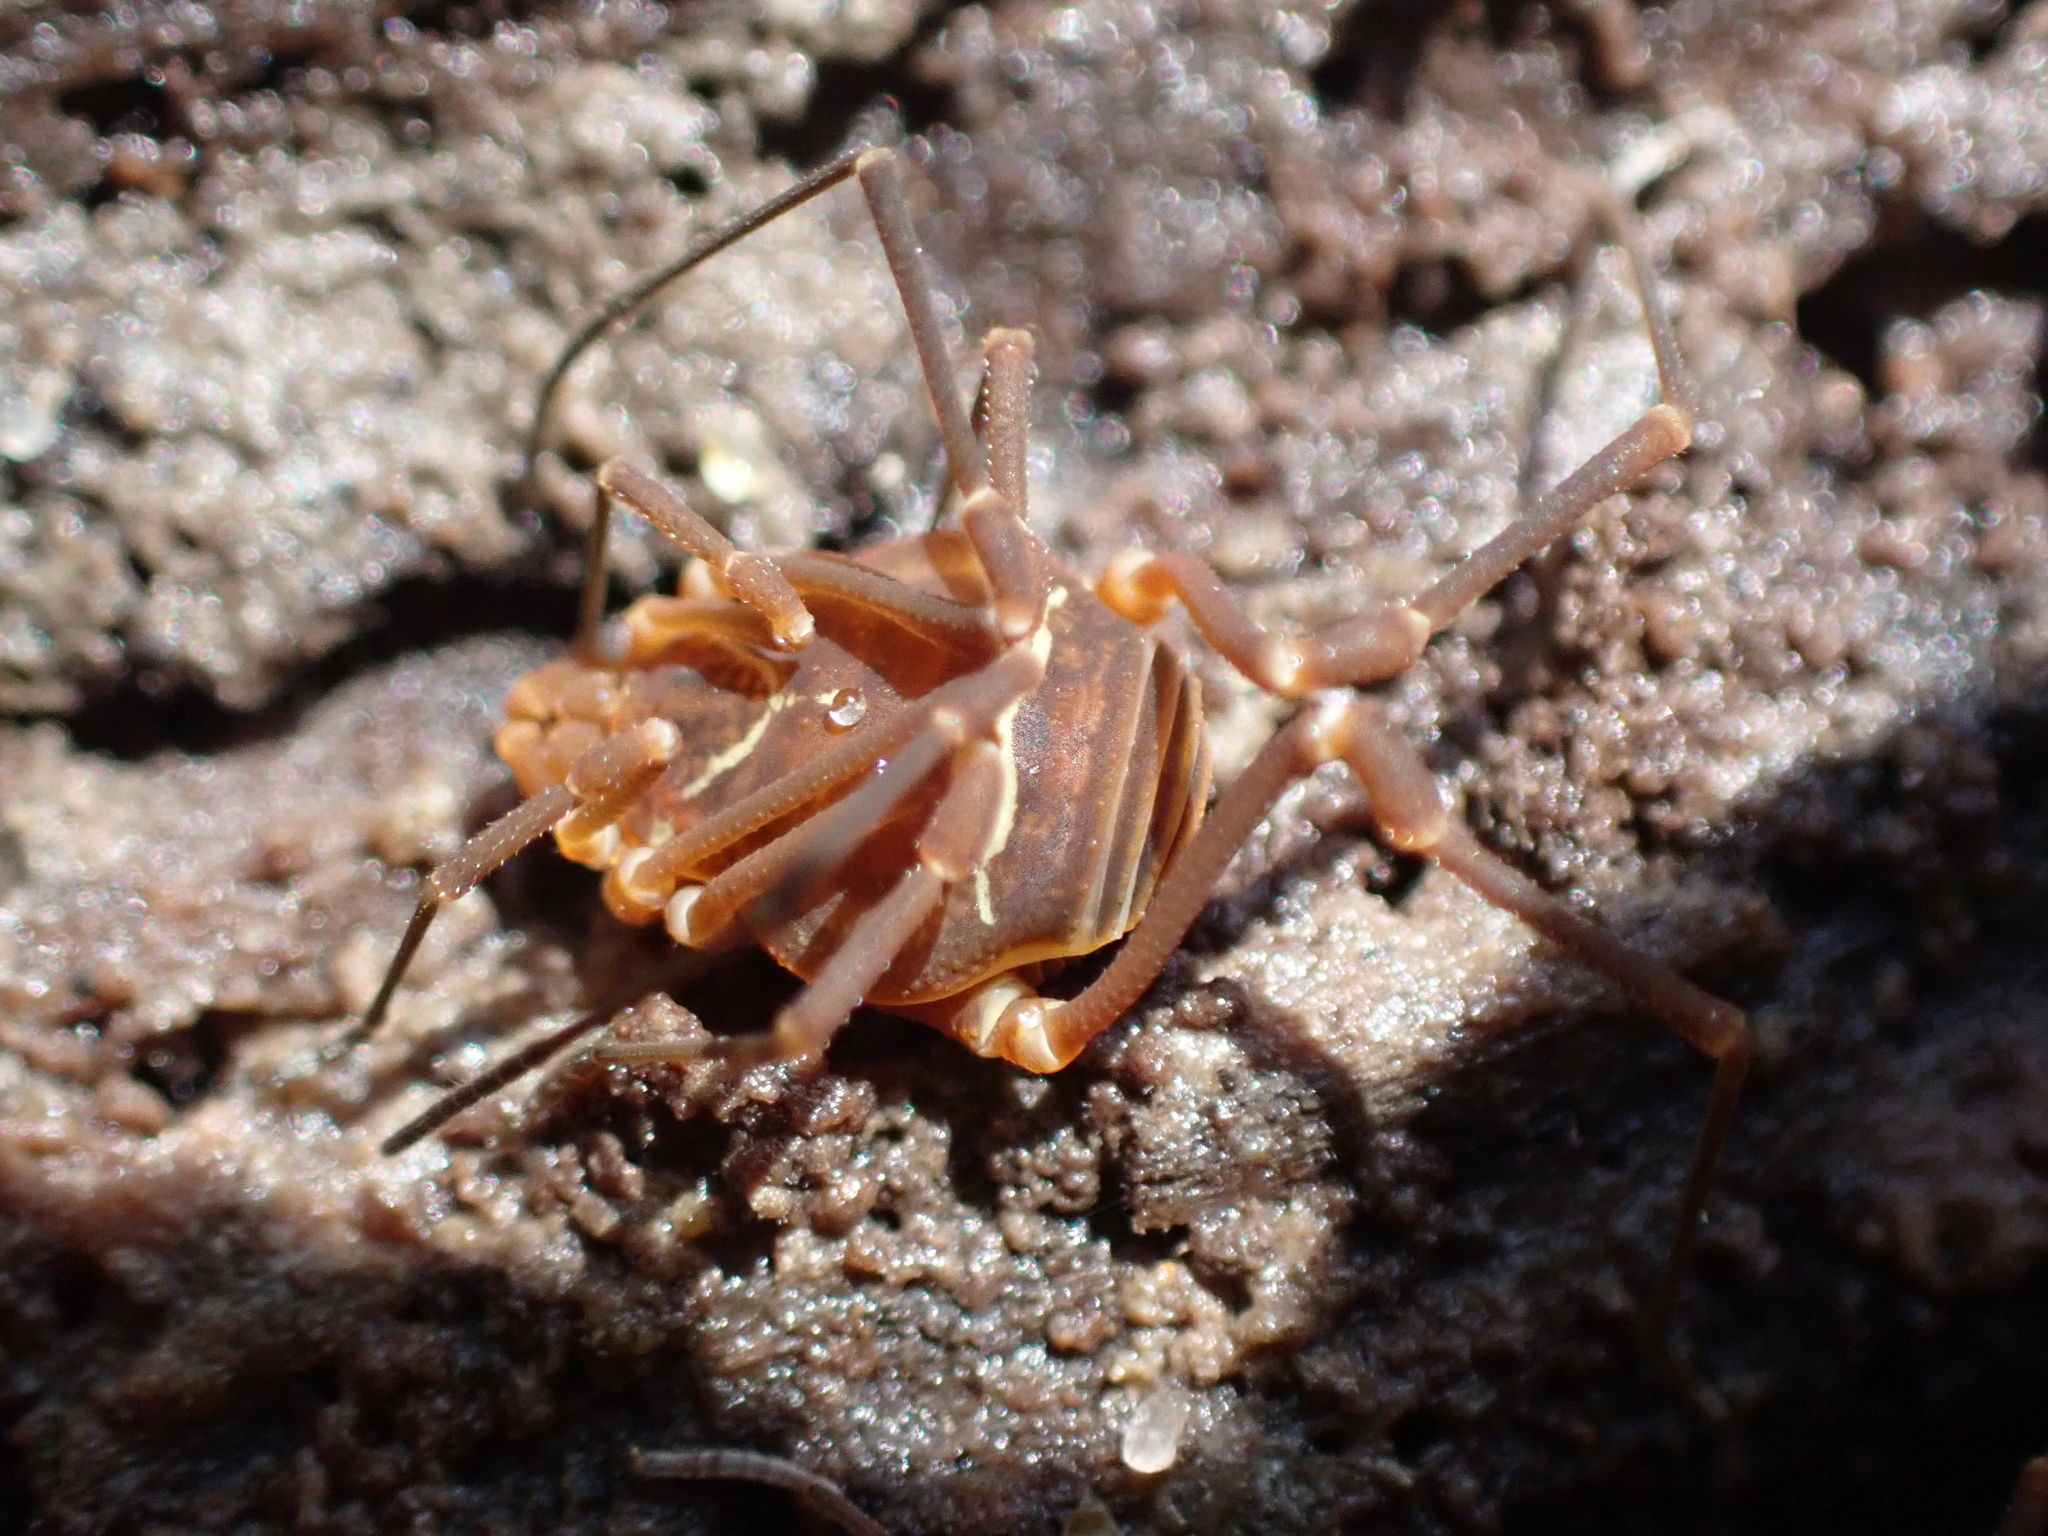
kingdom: Animalia
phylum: Arthropoda
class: Arachnida
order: Opiliones
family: Cosmetidae
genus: Libitioides
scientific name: Libitioides sayi
